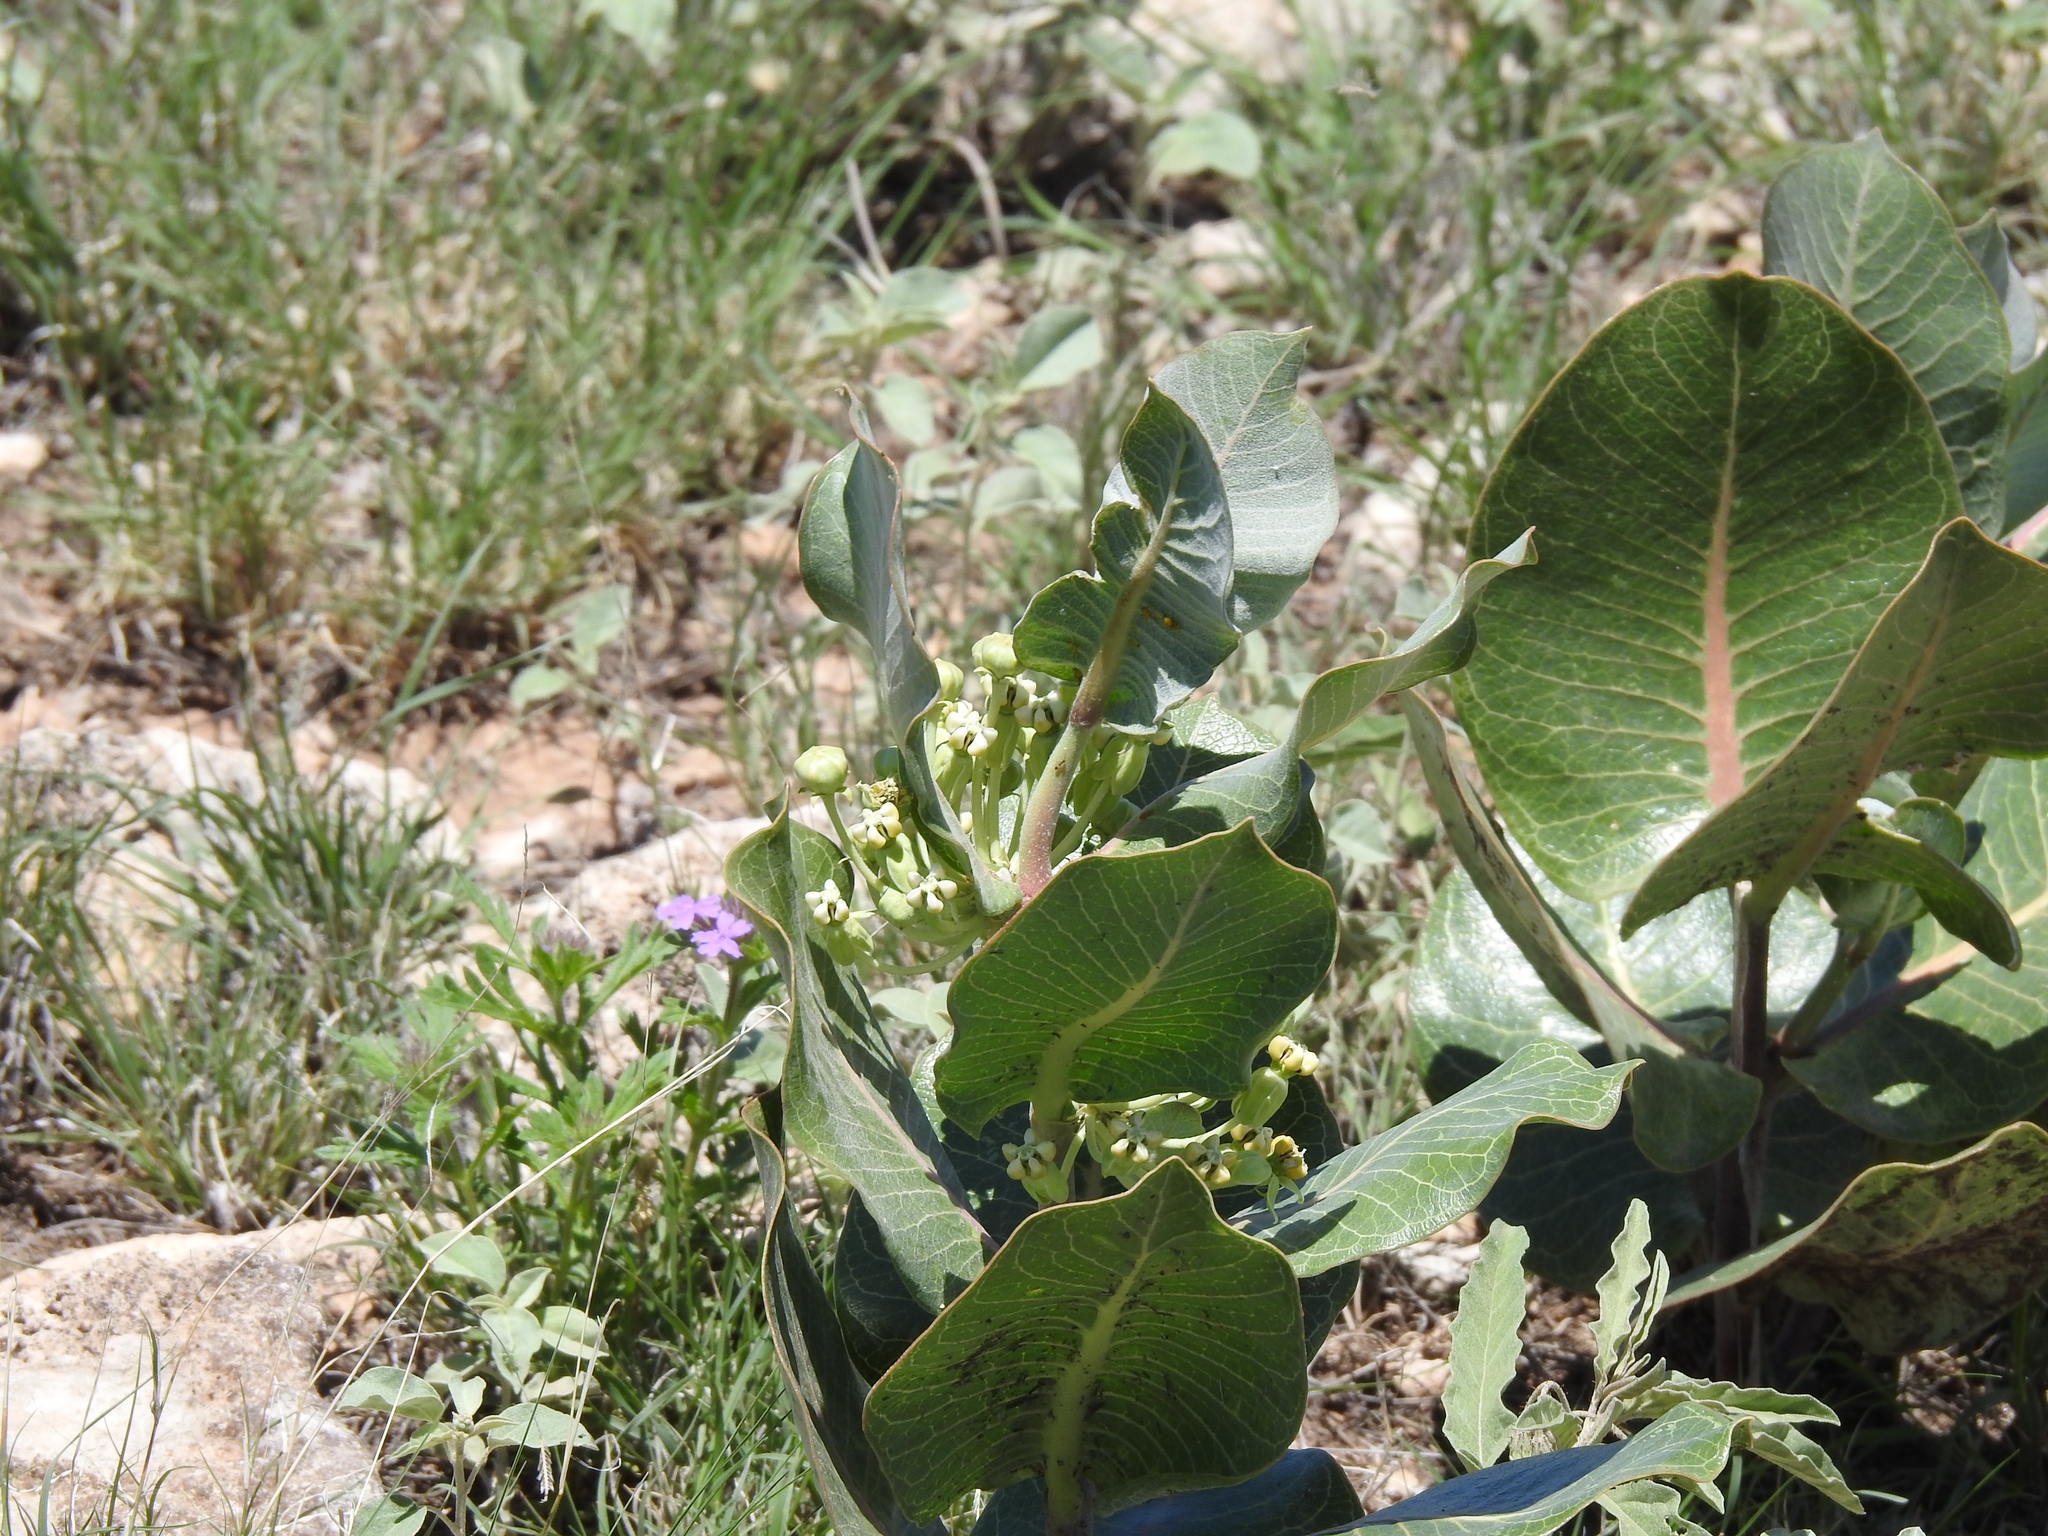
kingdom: Plantae
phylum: Tracheophyta
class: Magnoliopsida
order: Gentianales
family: Apocynaceae
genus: Asclepias
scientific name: Asclepias latifolia
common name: Broadleaf milkweed
